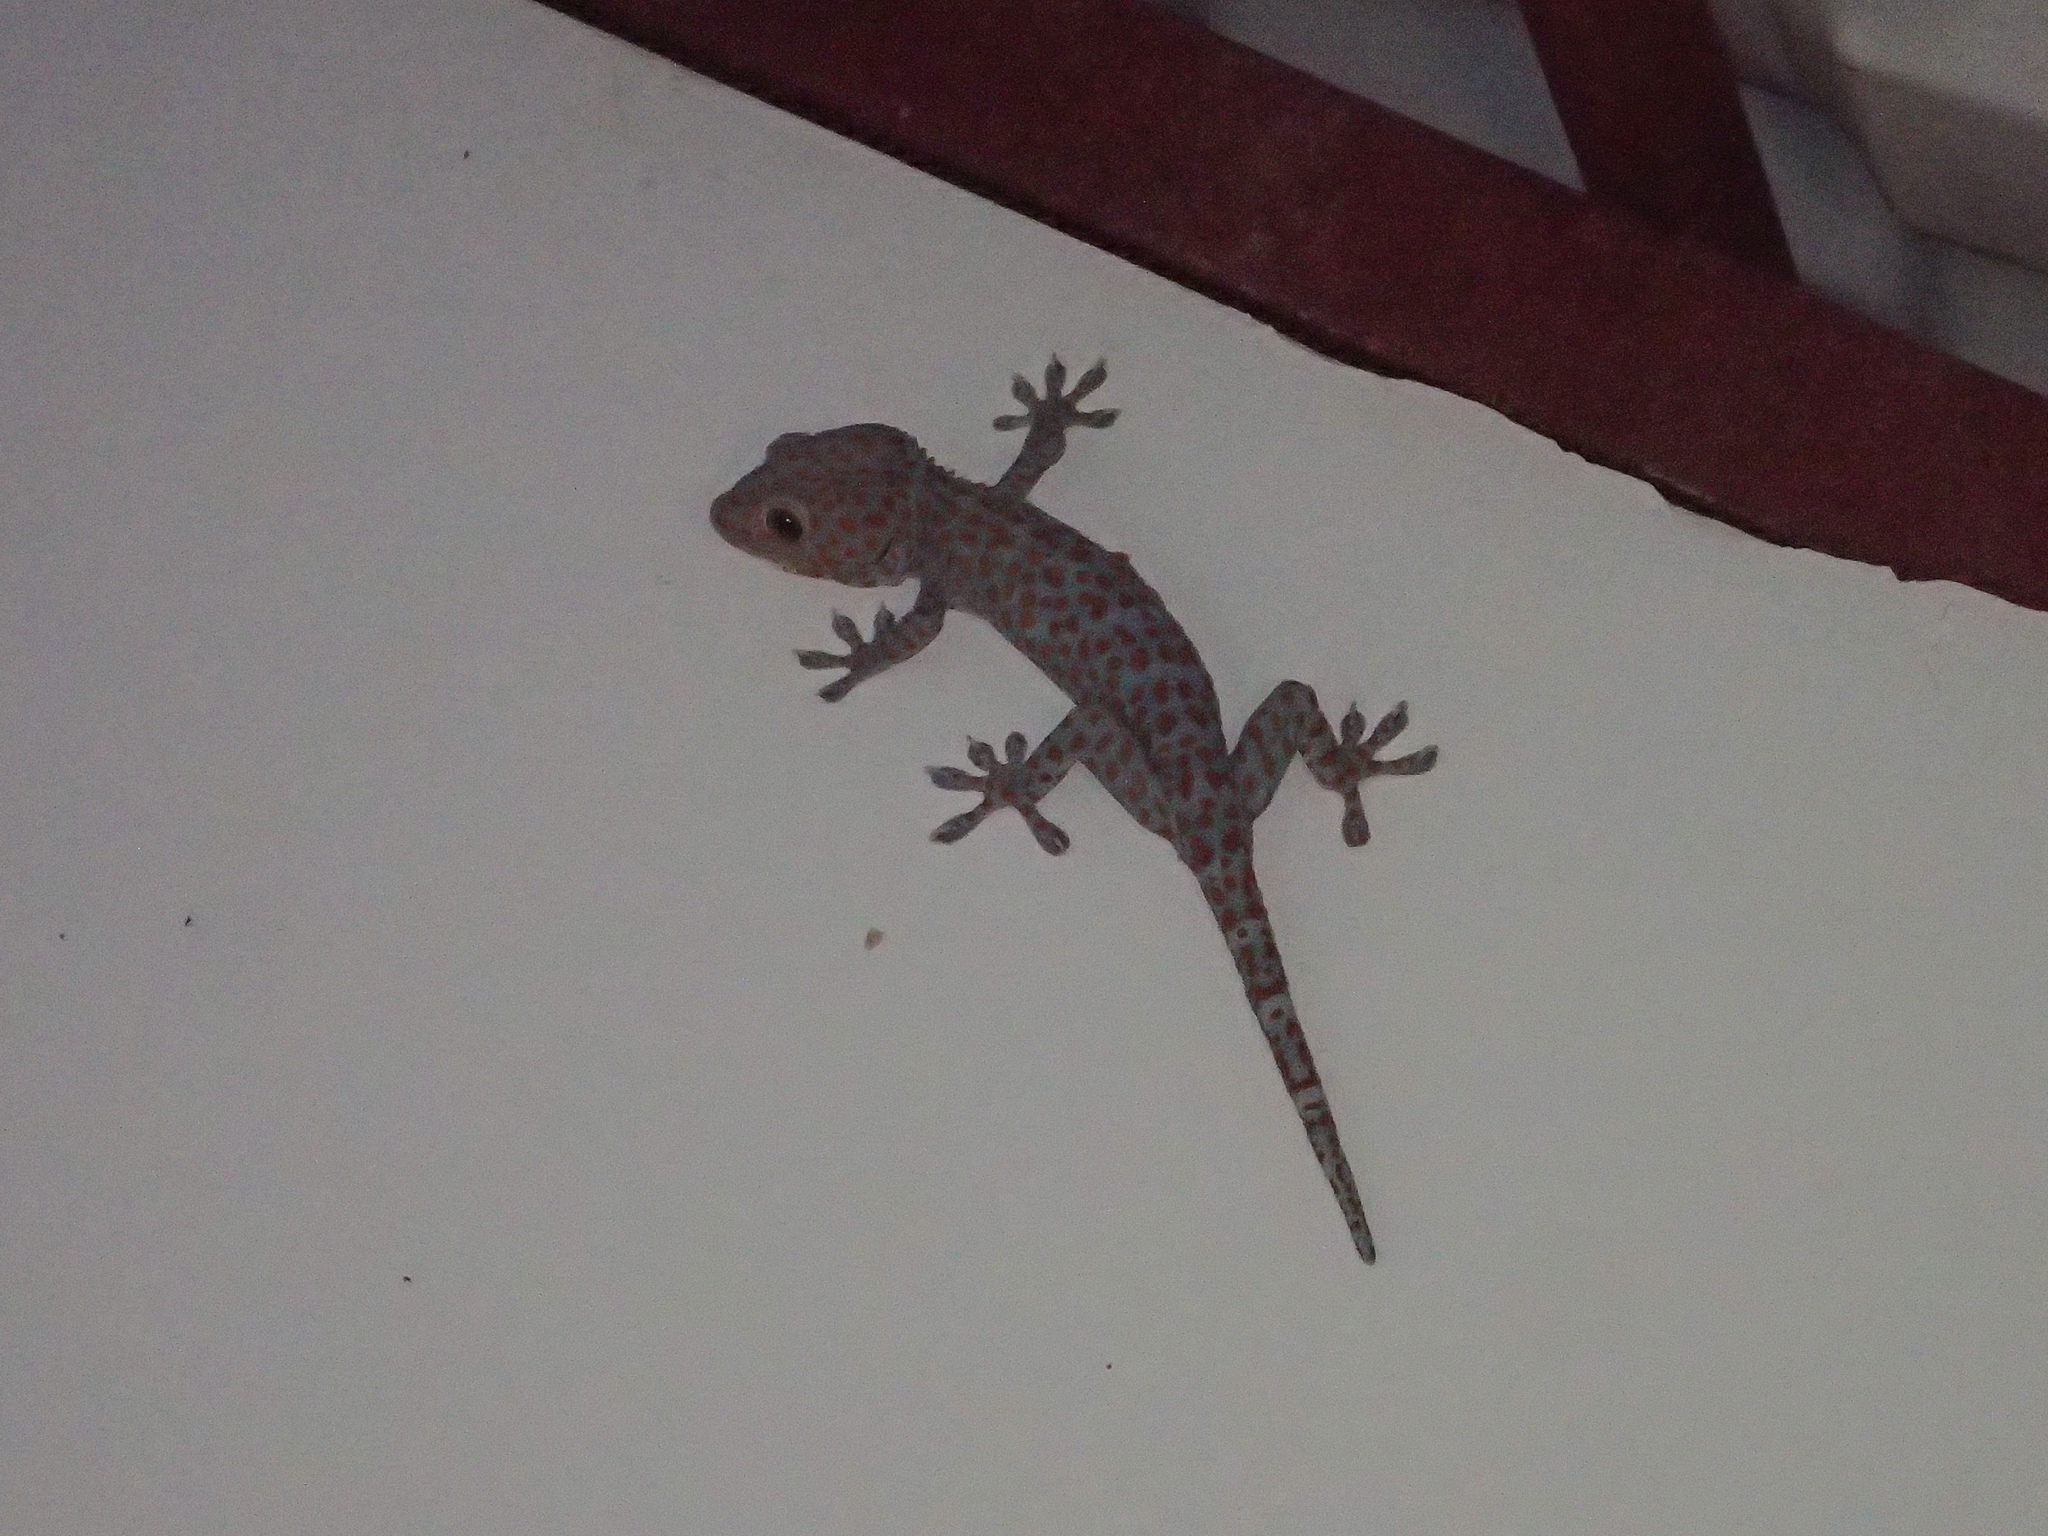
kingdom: Animalia
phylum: Chordata
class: Squamata
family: Gekkonidae
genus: Gekko
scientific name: Gekko gecko
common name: Tokay gecko
